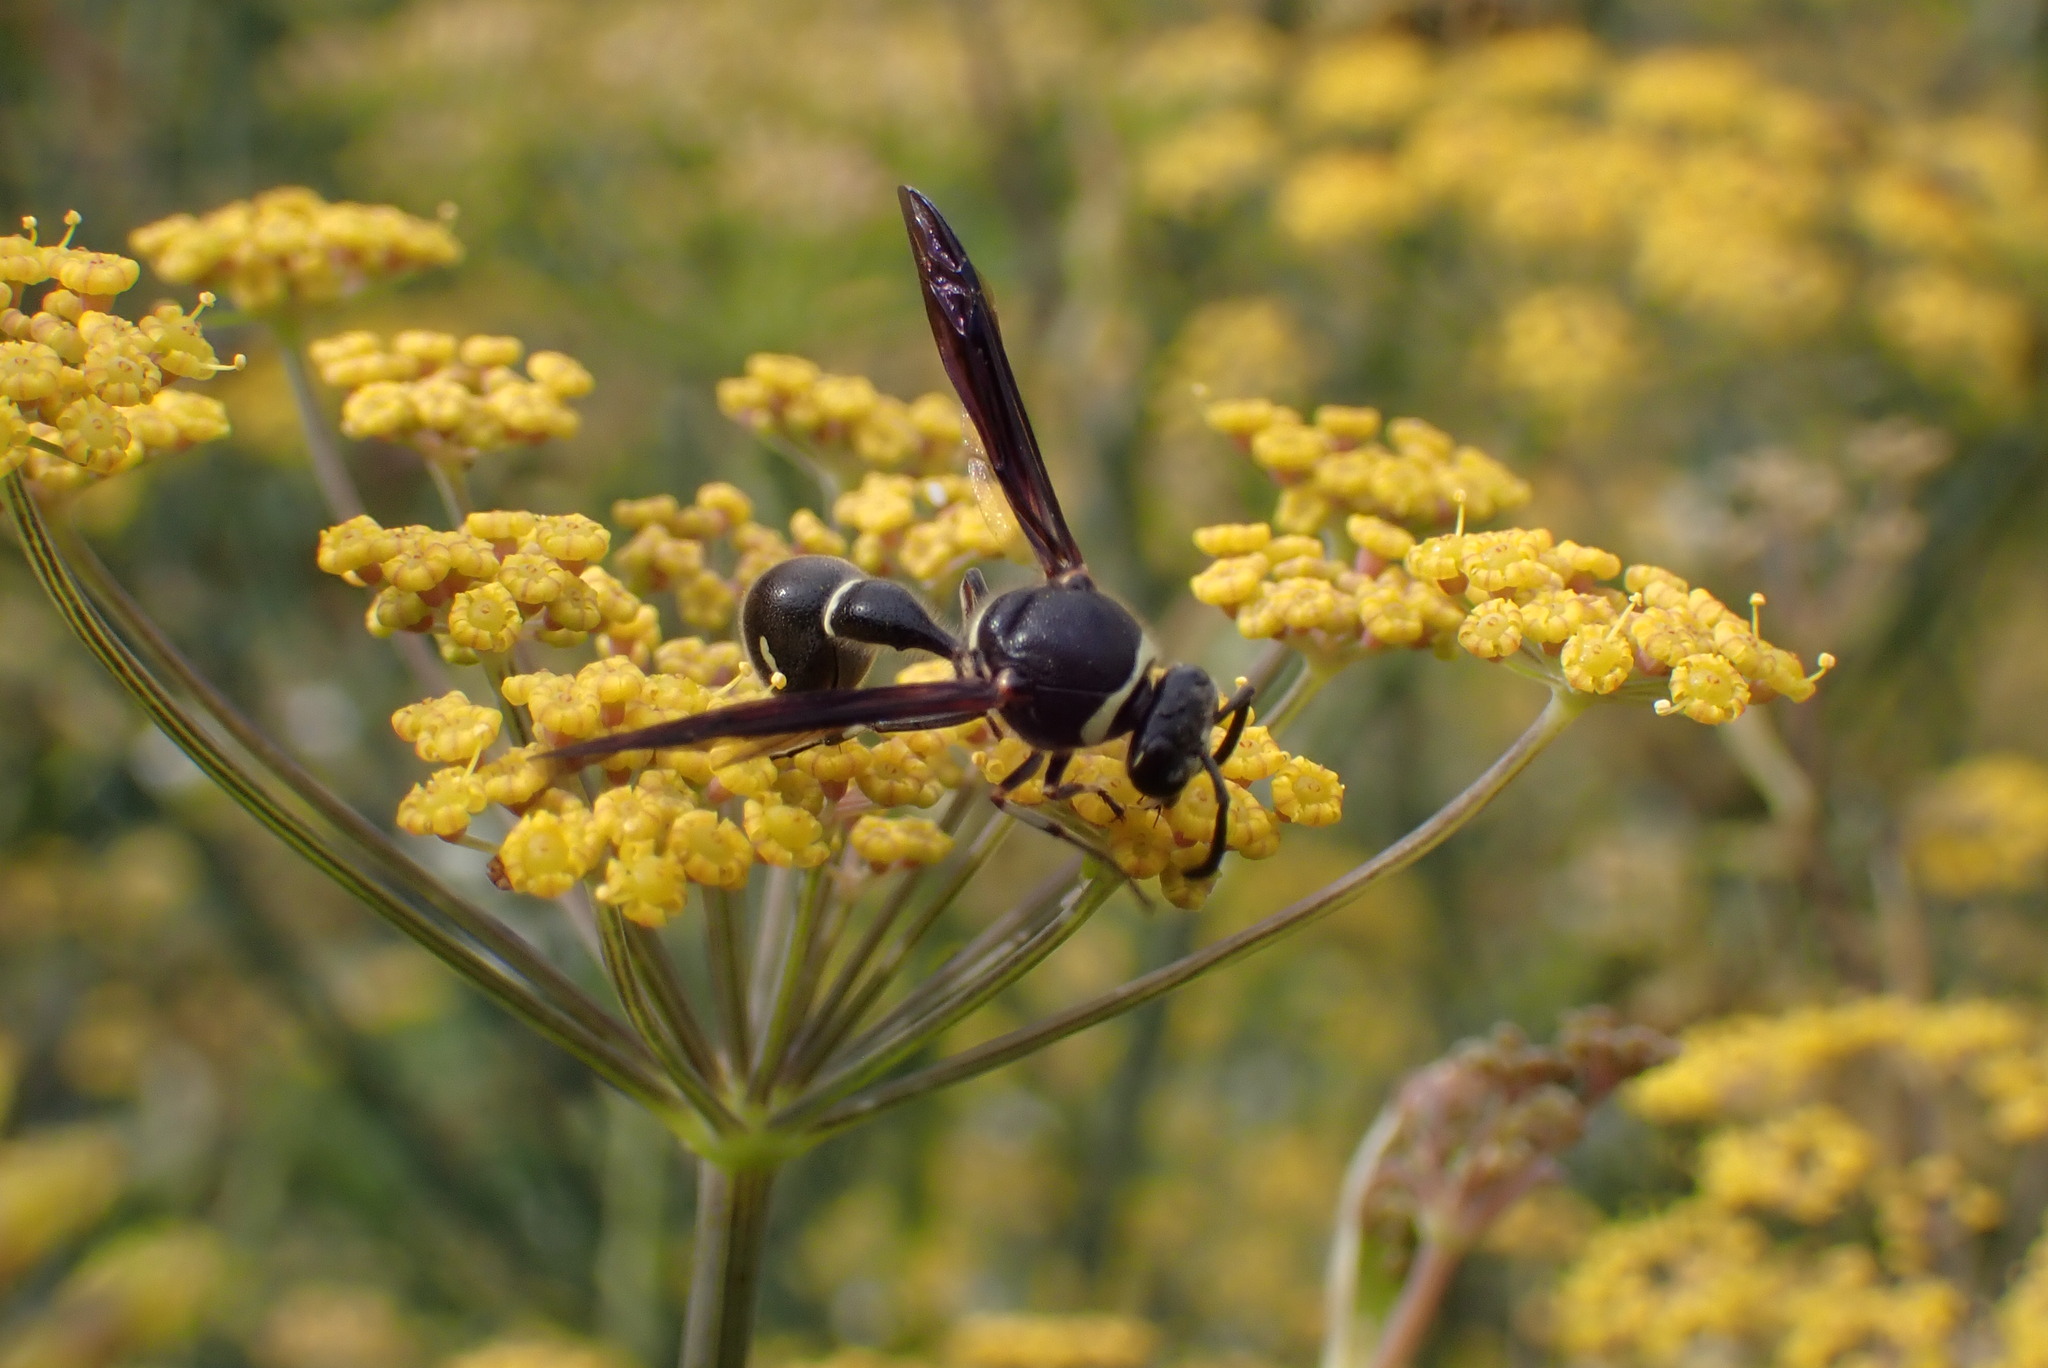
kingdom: Animalia
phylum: Arthropoda
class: Insecta
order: Hymenoptera
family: Vespidae
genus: Eumenes
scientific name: Eumenes fraternus
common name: Fraternal potter wasp
